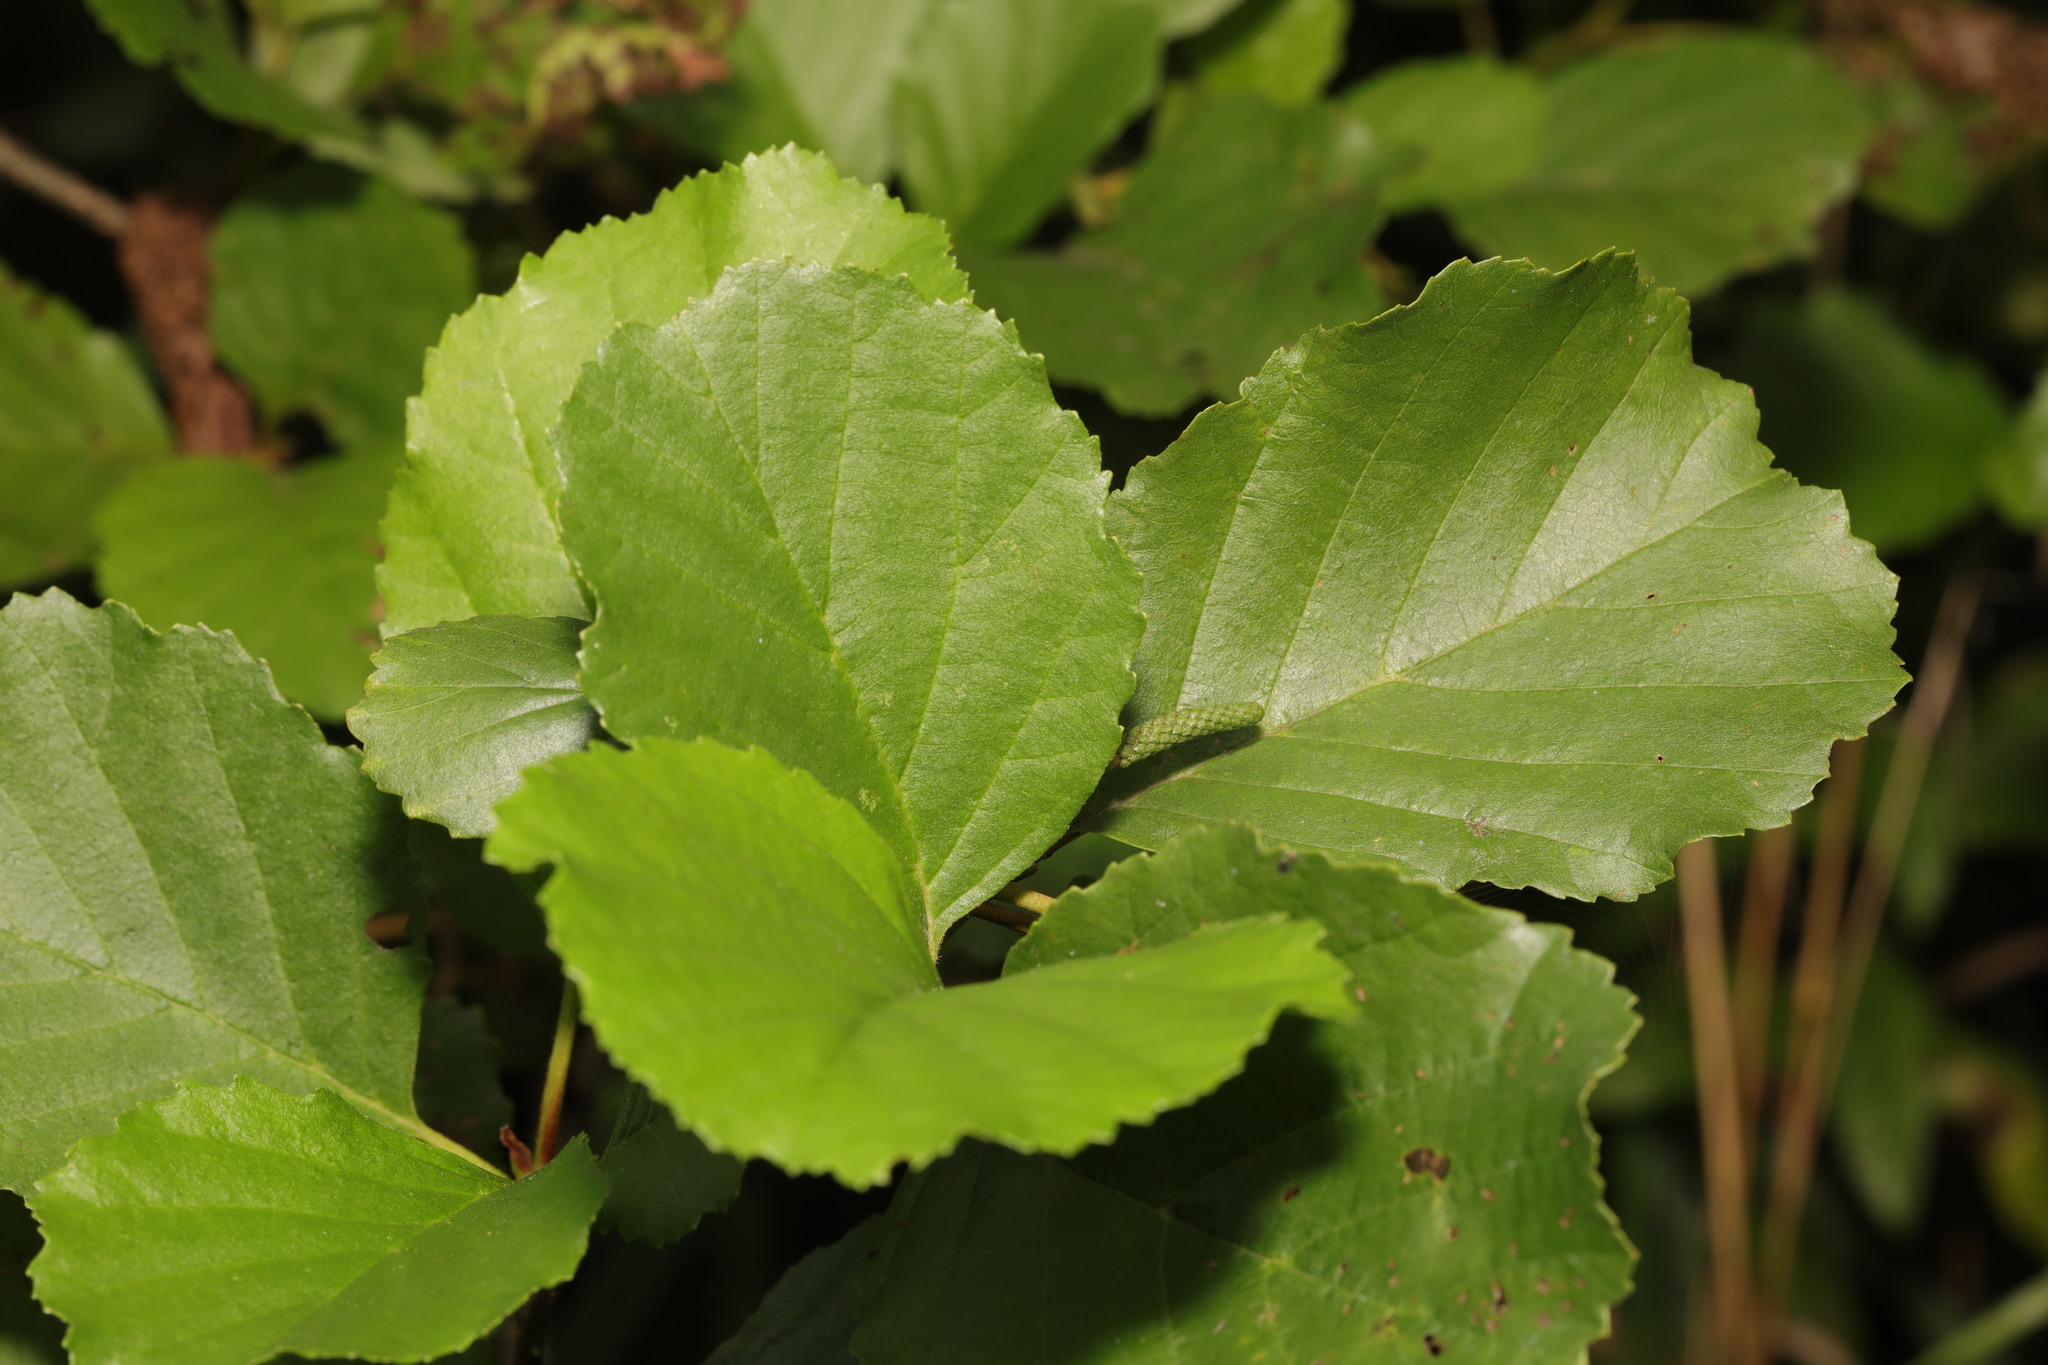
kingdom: Plantae
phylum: Tracheophyta
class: Magnoliopsida
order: Fagales
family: Betulaceae
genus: Alnus
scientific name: Alnus glutinosa
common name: Black alder
